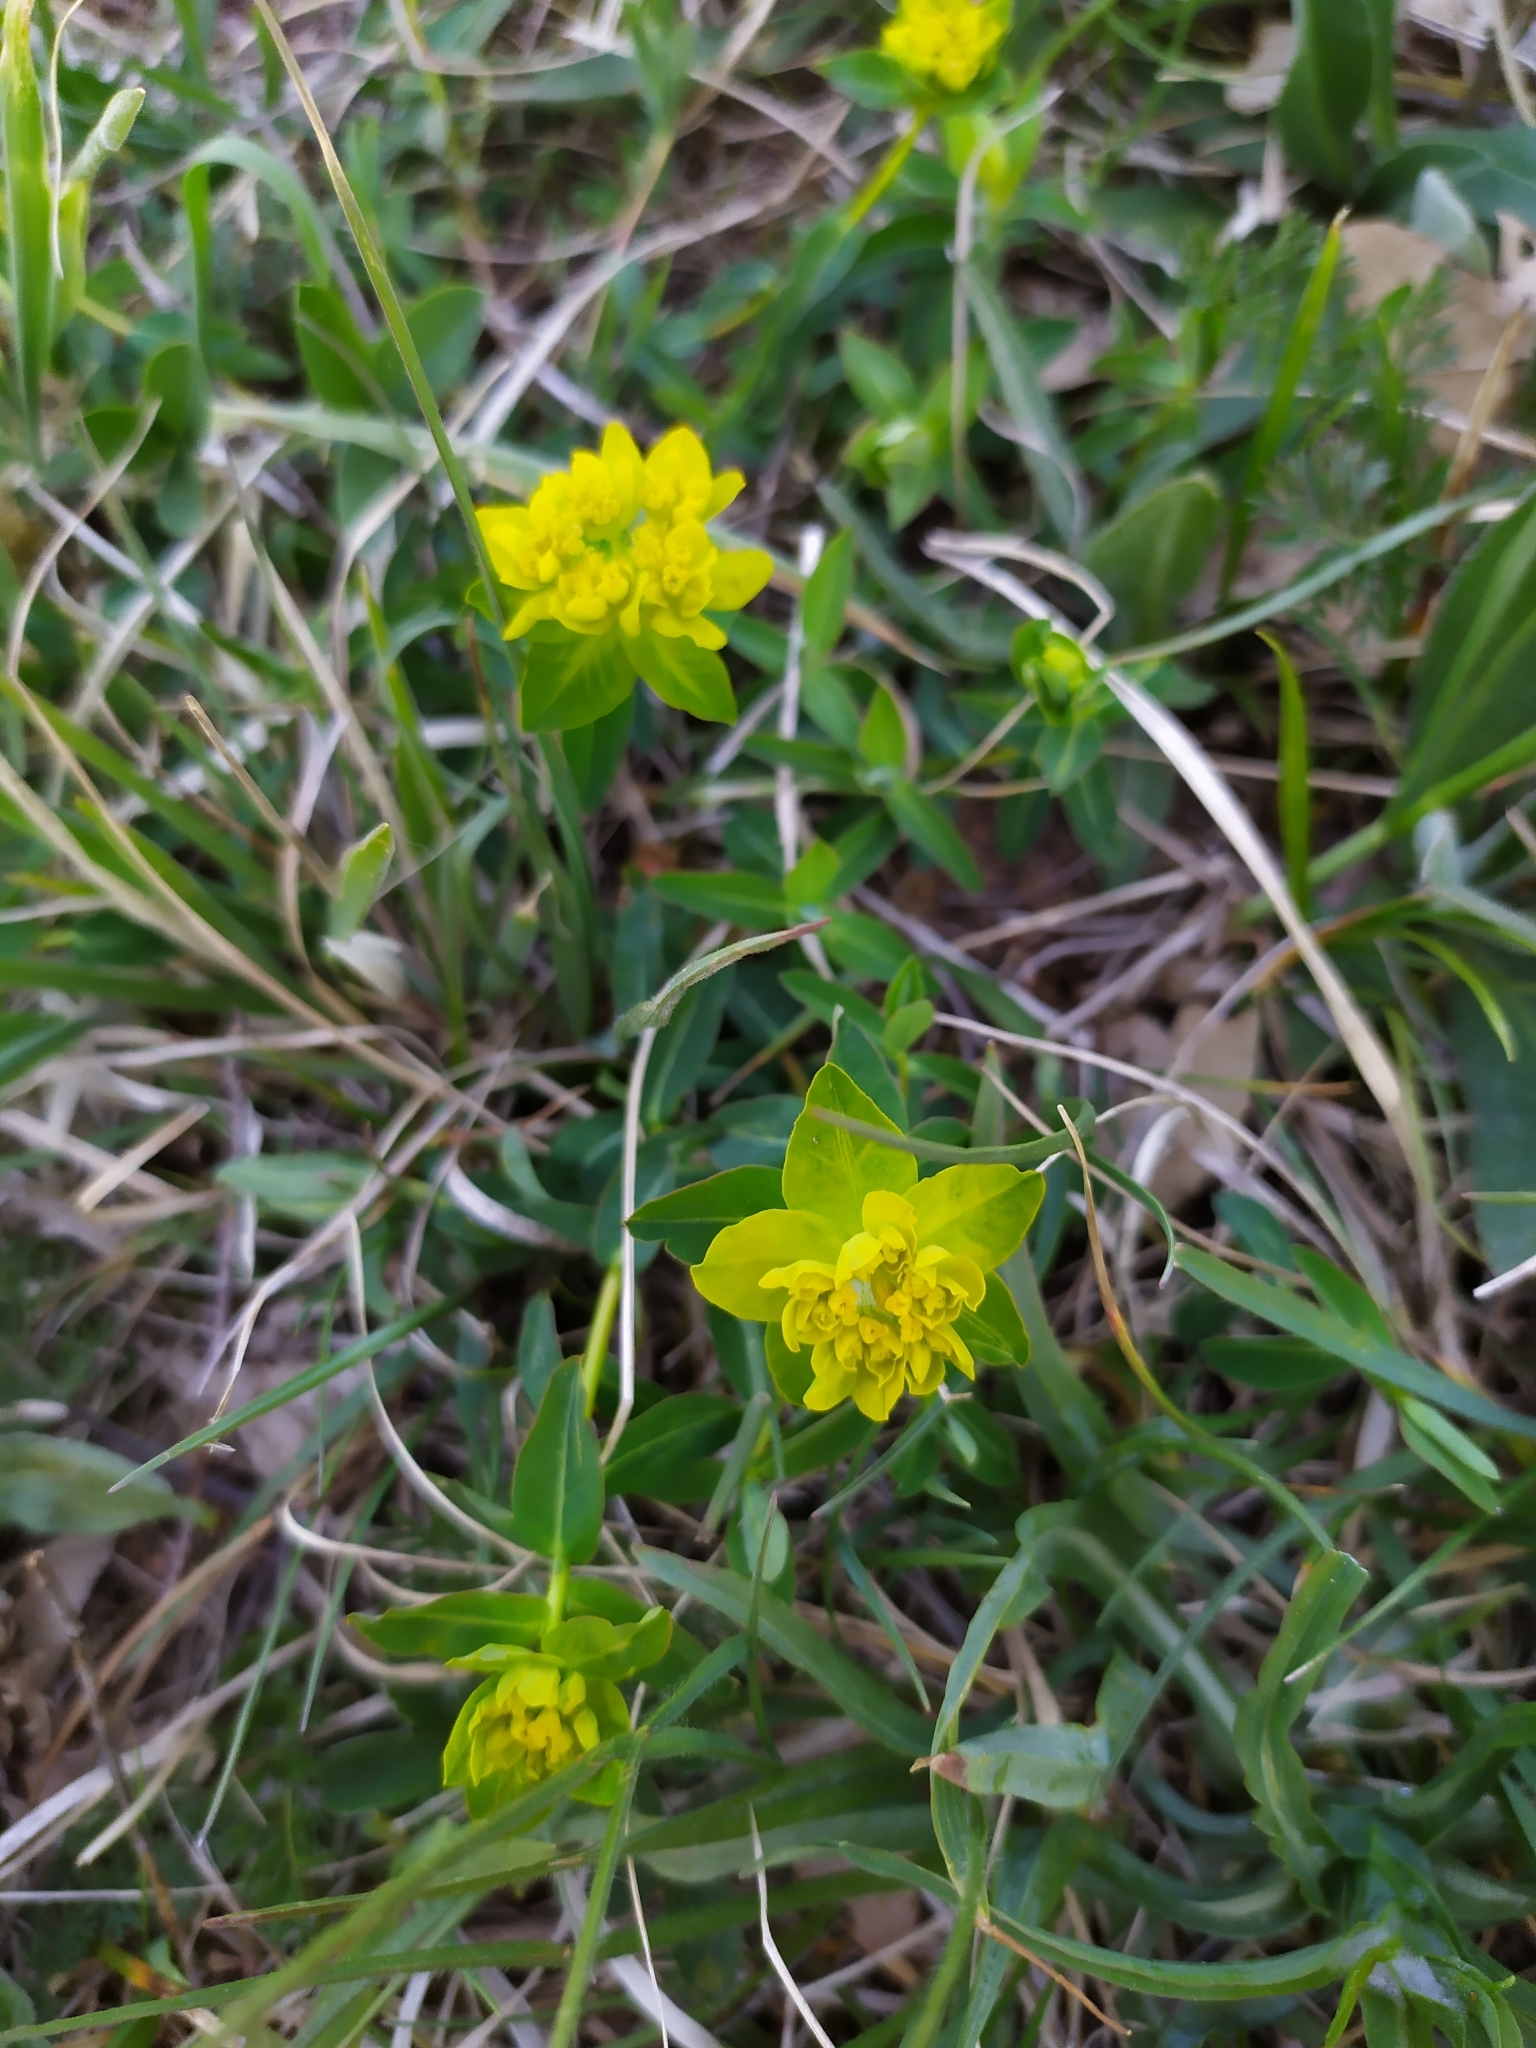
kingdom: Plantae
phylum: Tracheophyta
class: Magnoliopsida
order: Malpighiales
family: Euphorbiaceae
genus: Euphorbia
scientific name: Euphorbia verrucosa
